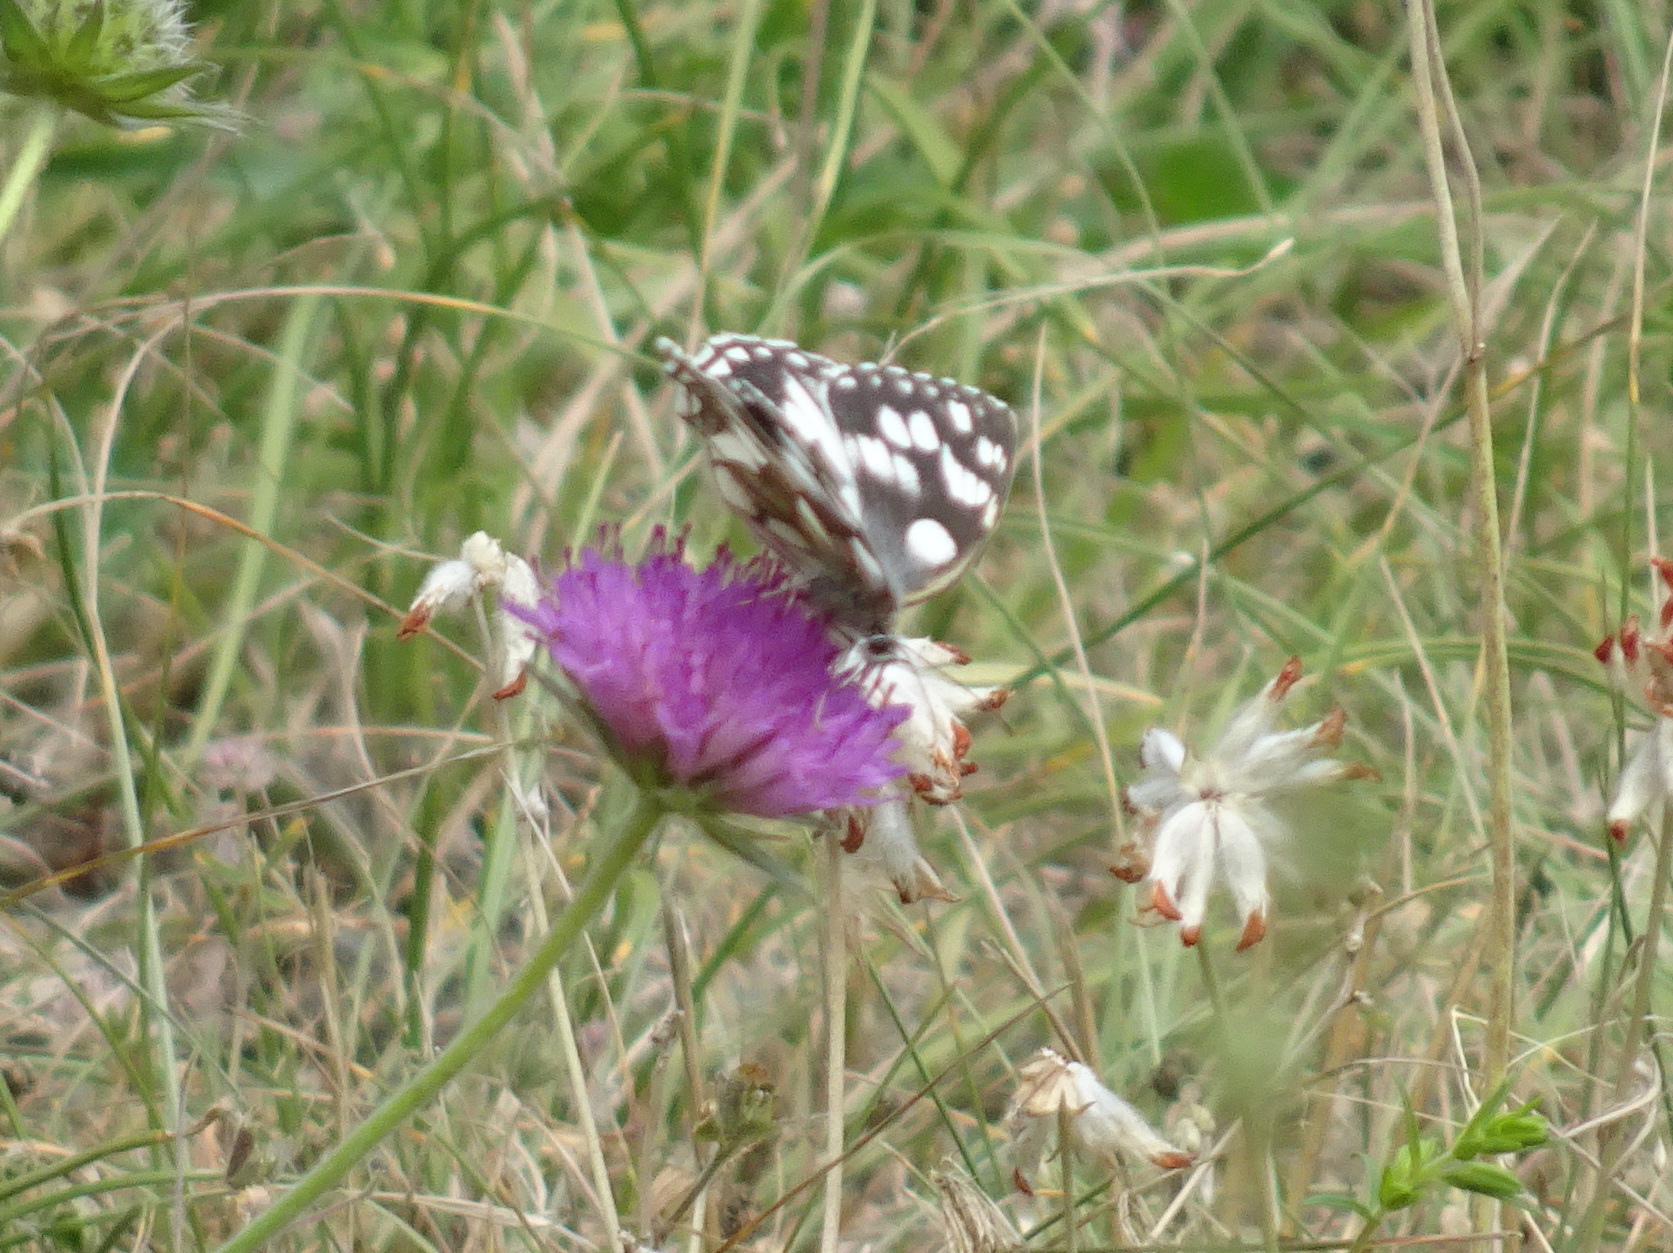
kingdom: Animalia
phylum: Arthropoda
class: Insecta
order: Lepidoptera
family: Nymphalidae
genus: Melanargia
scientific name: Melanargia galathea
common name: Marbled white
